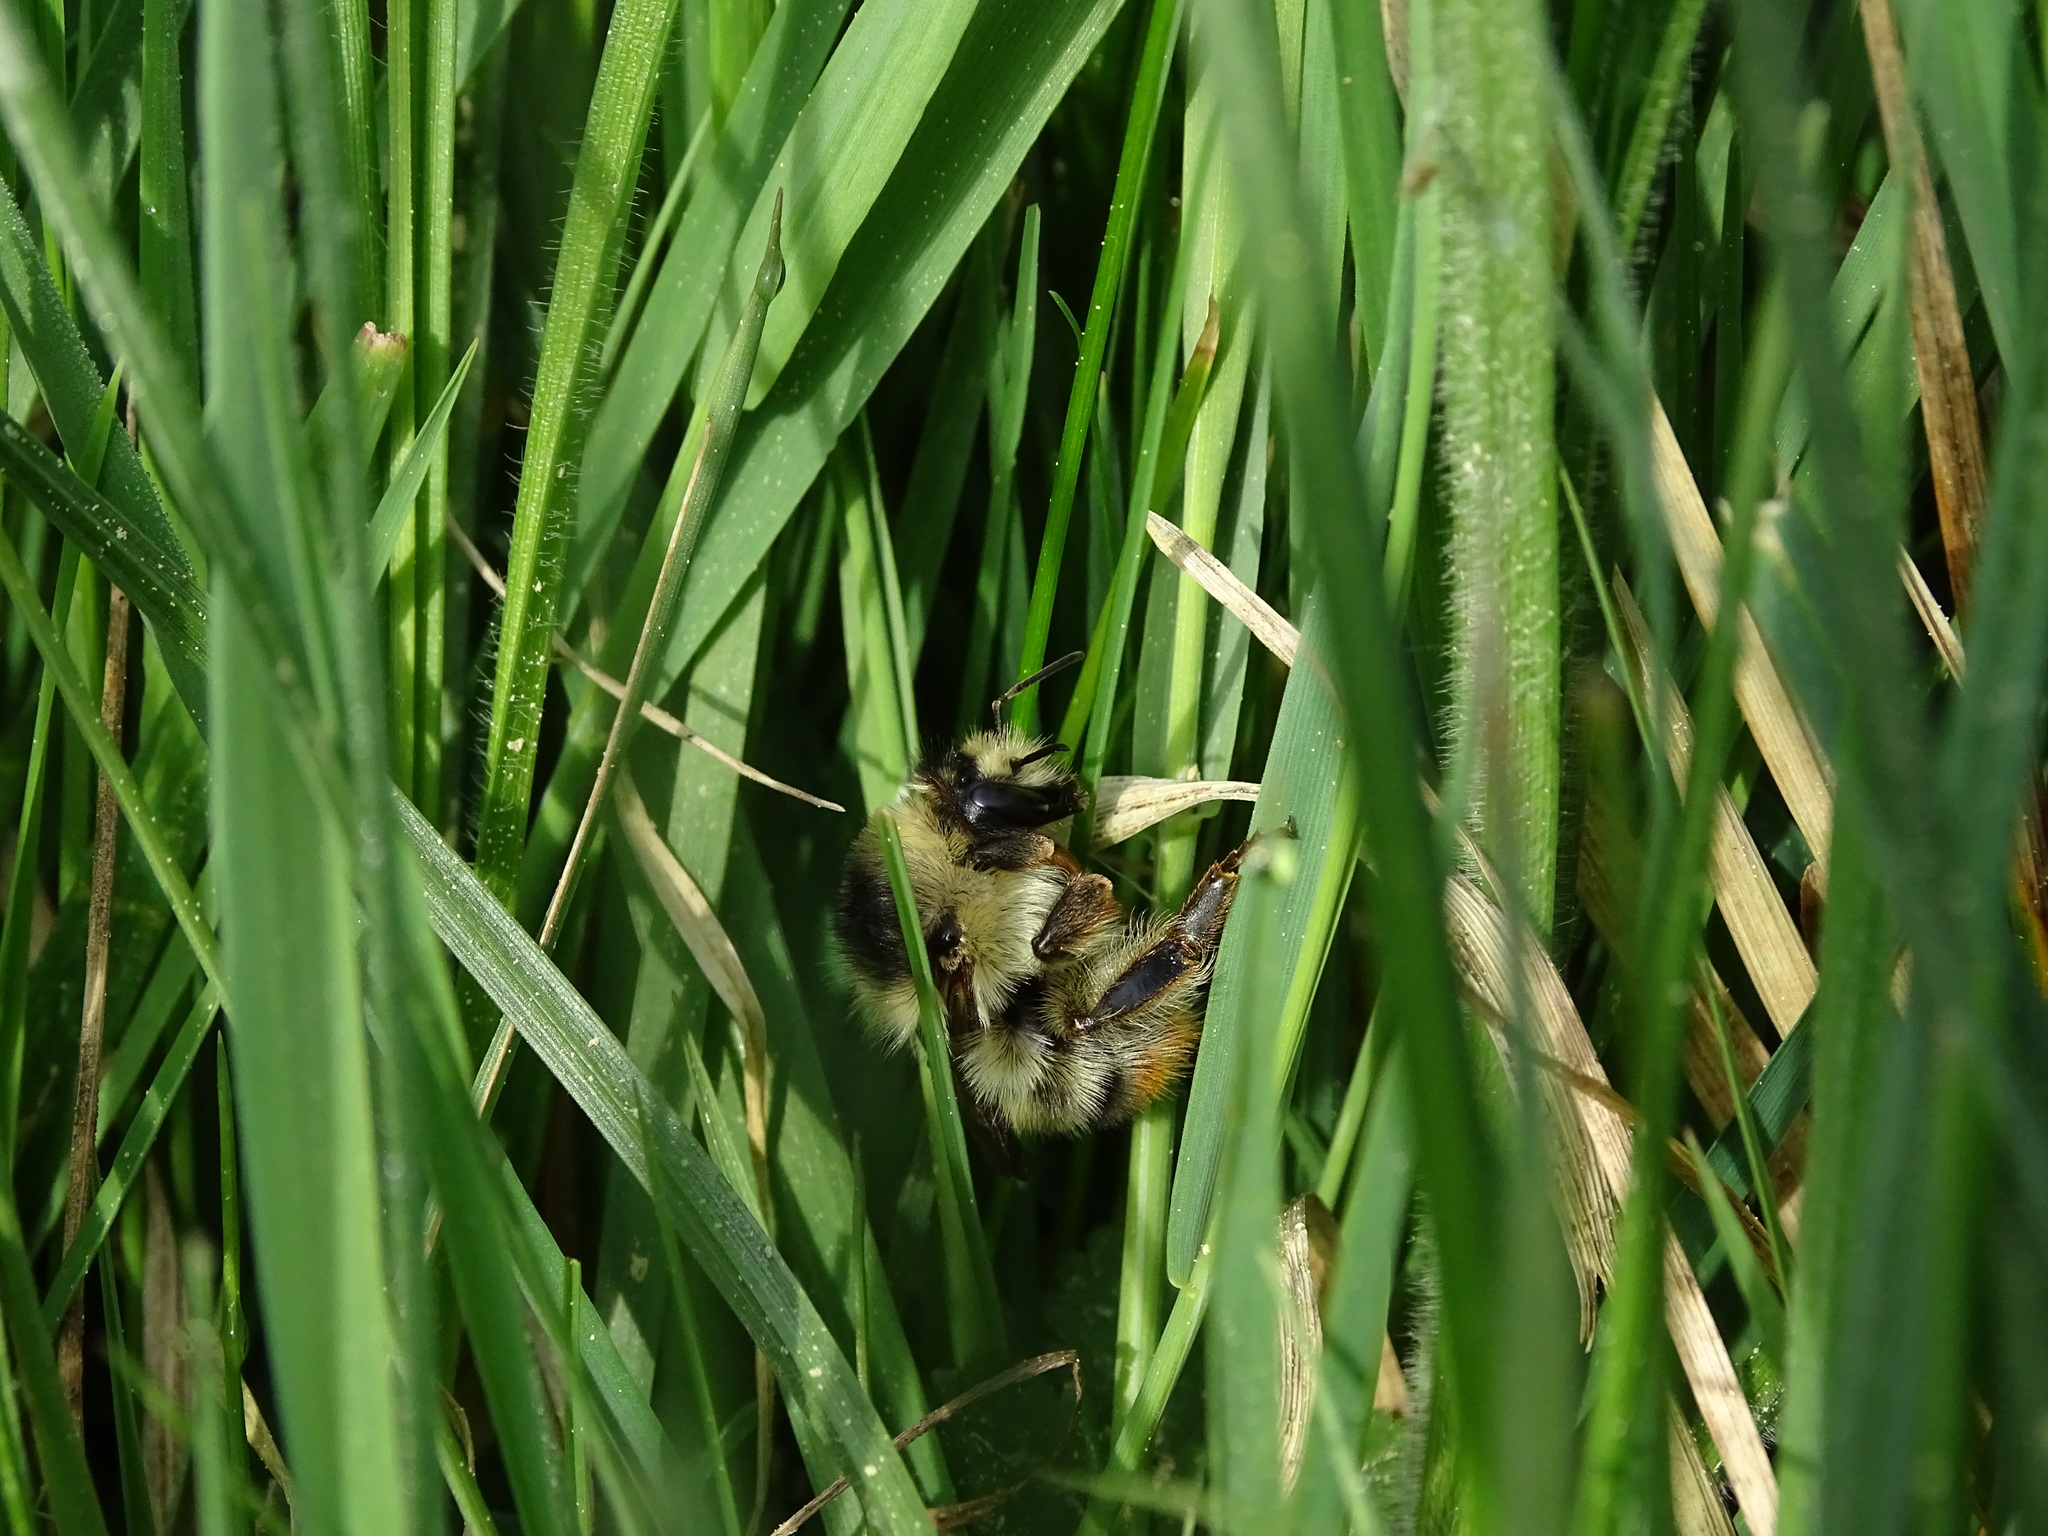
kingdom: Animalia
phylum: Arthropoda
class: Insecta
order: Hymenoptera
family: Apidae
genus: Bombus
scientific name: Bombus sylvarum
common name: Shrill carder bee
